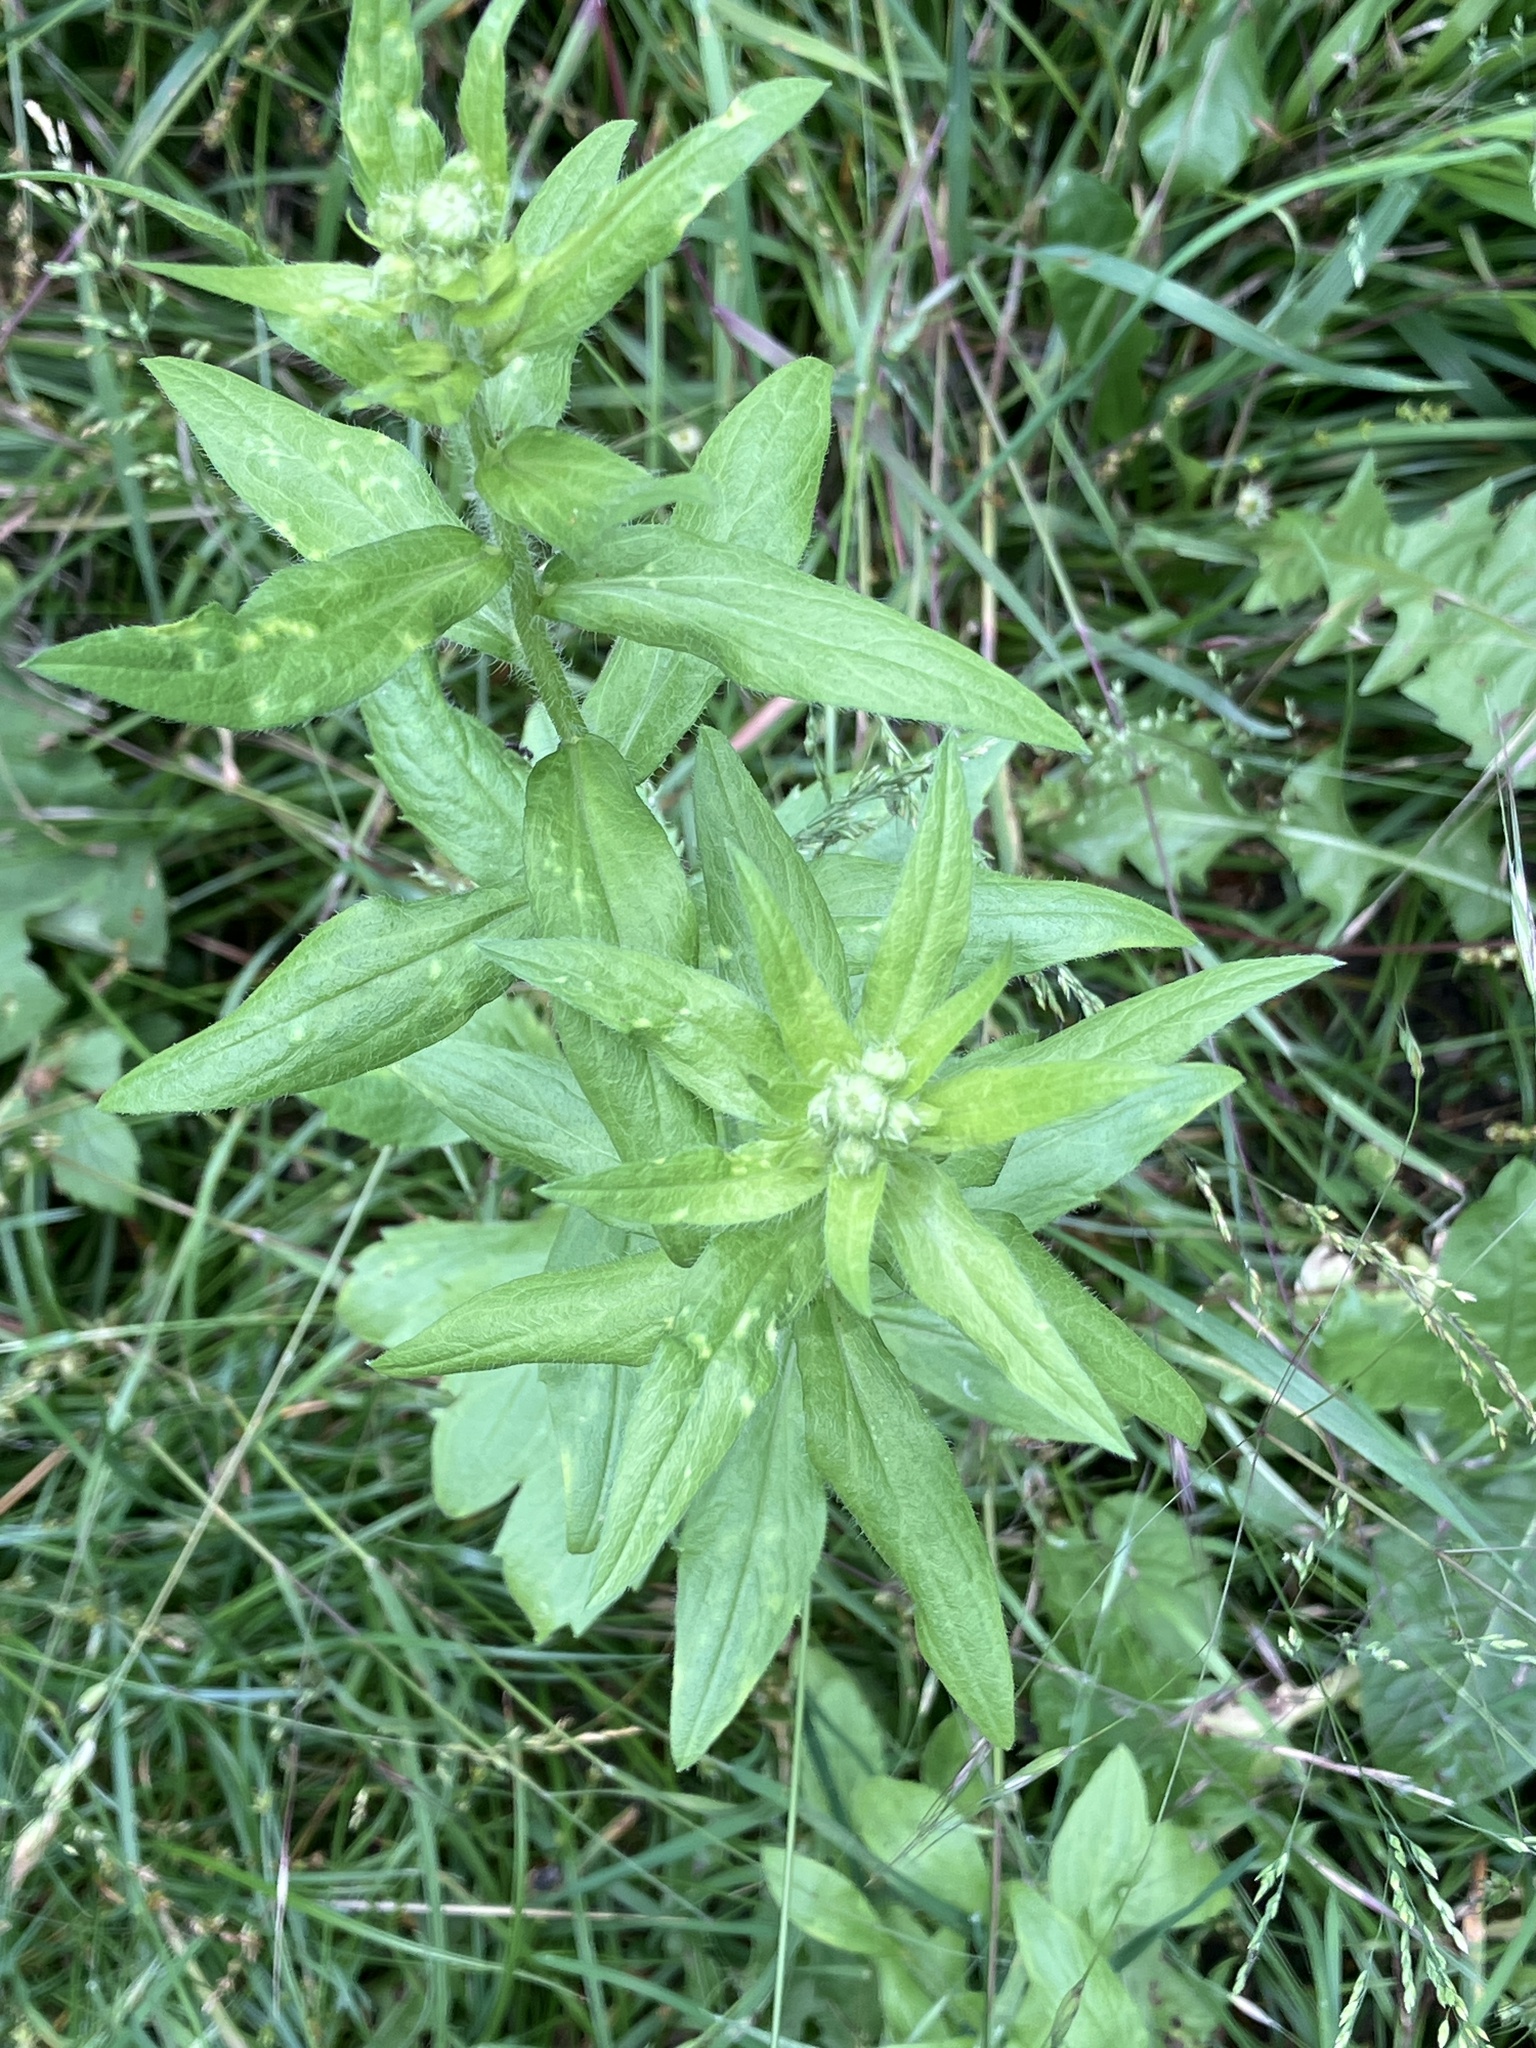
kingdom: Plantae
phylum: Tracheophyta
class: Magnoliopsida
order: Asterales
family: Asteraceae
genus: Erigeron
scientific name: Erigeron annuus
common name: Tall fleabane
